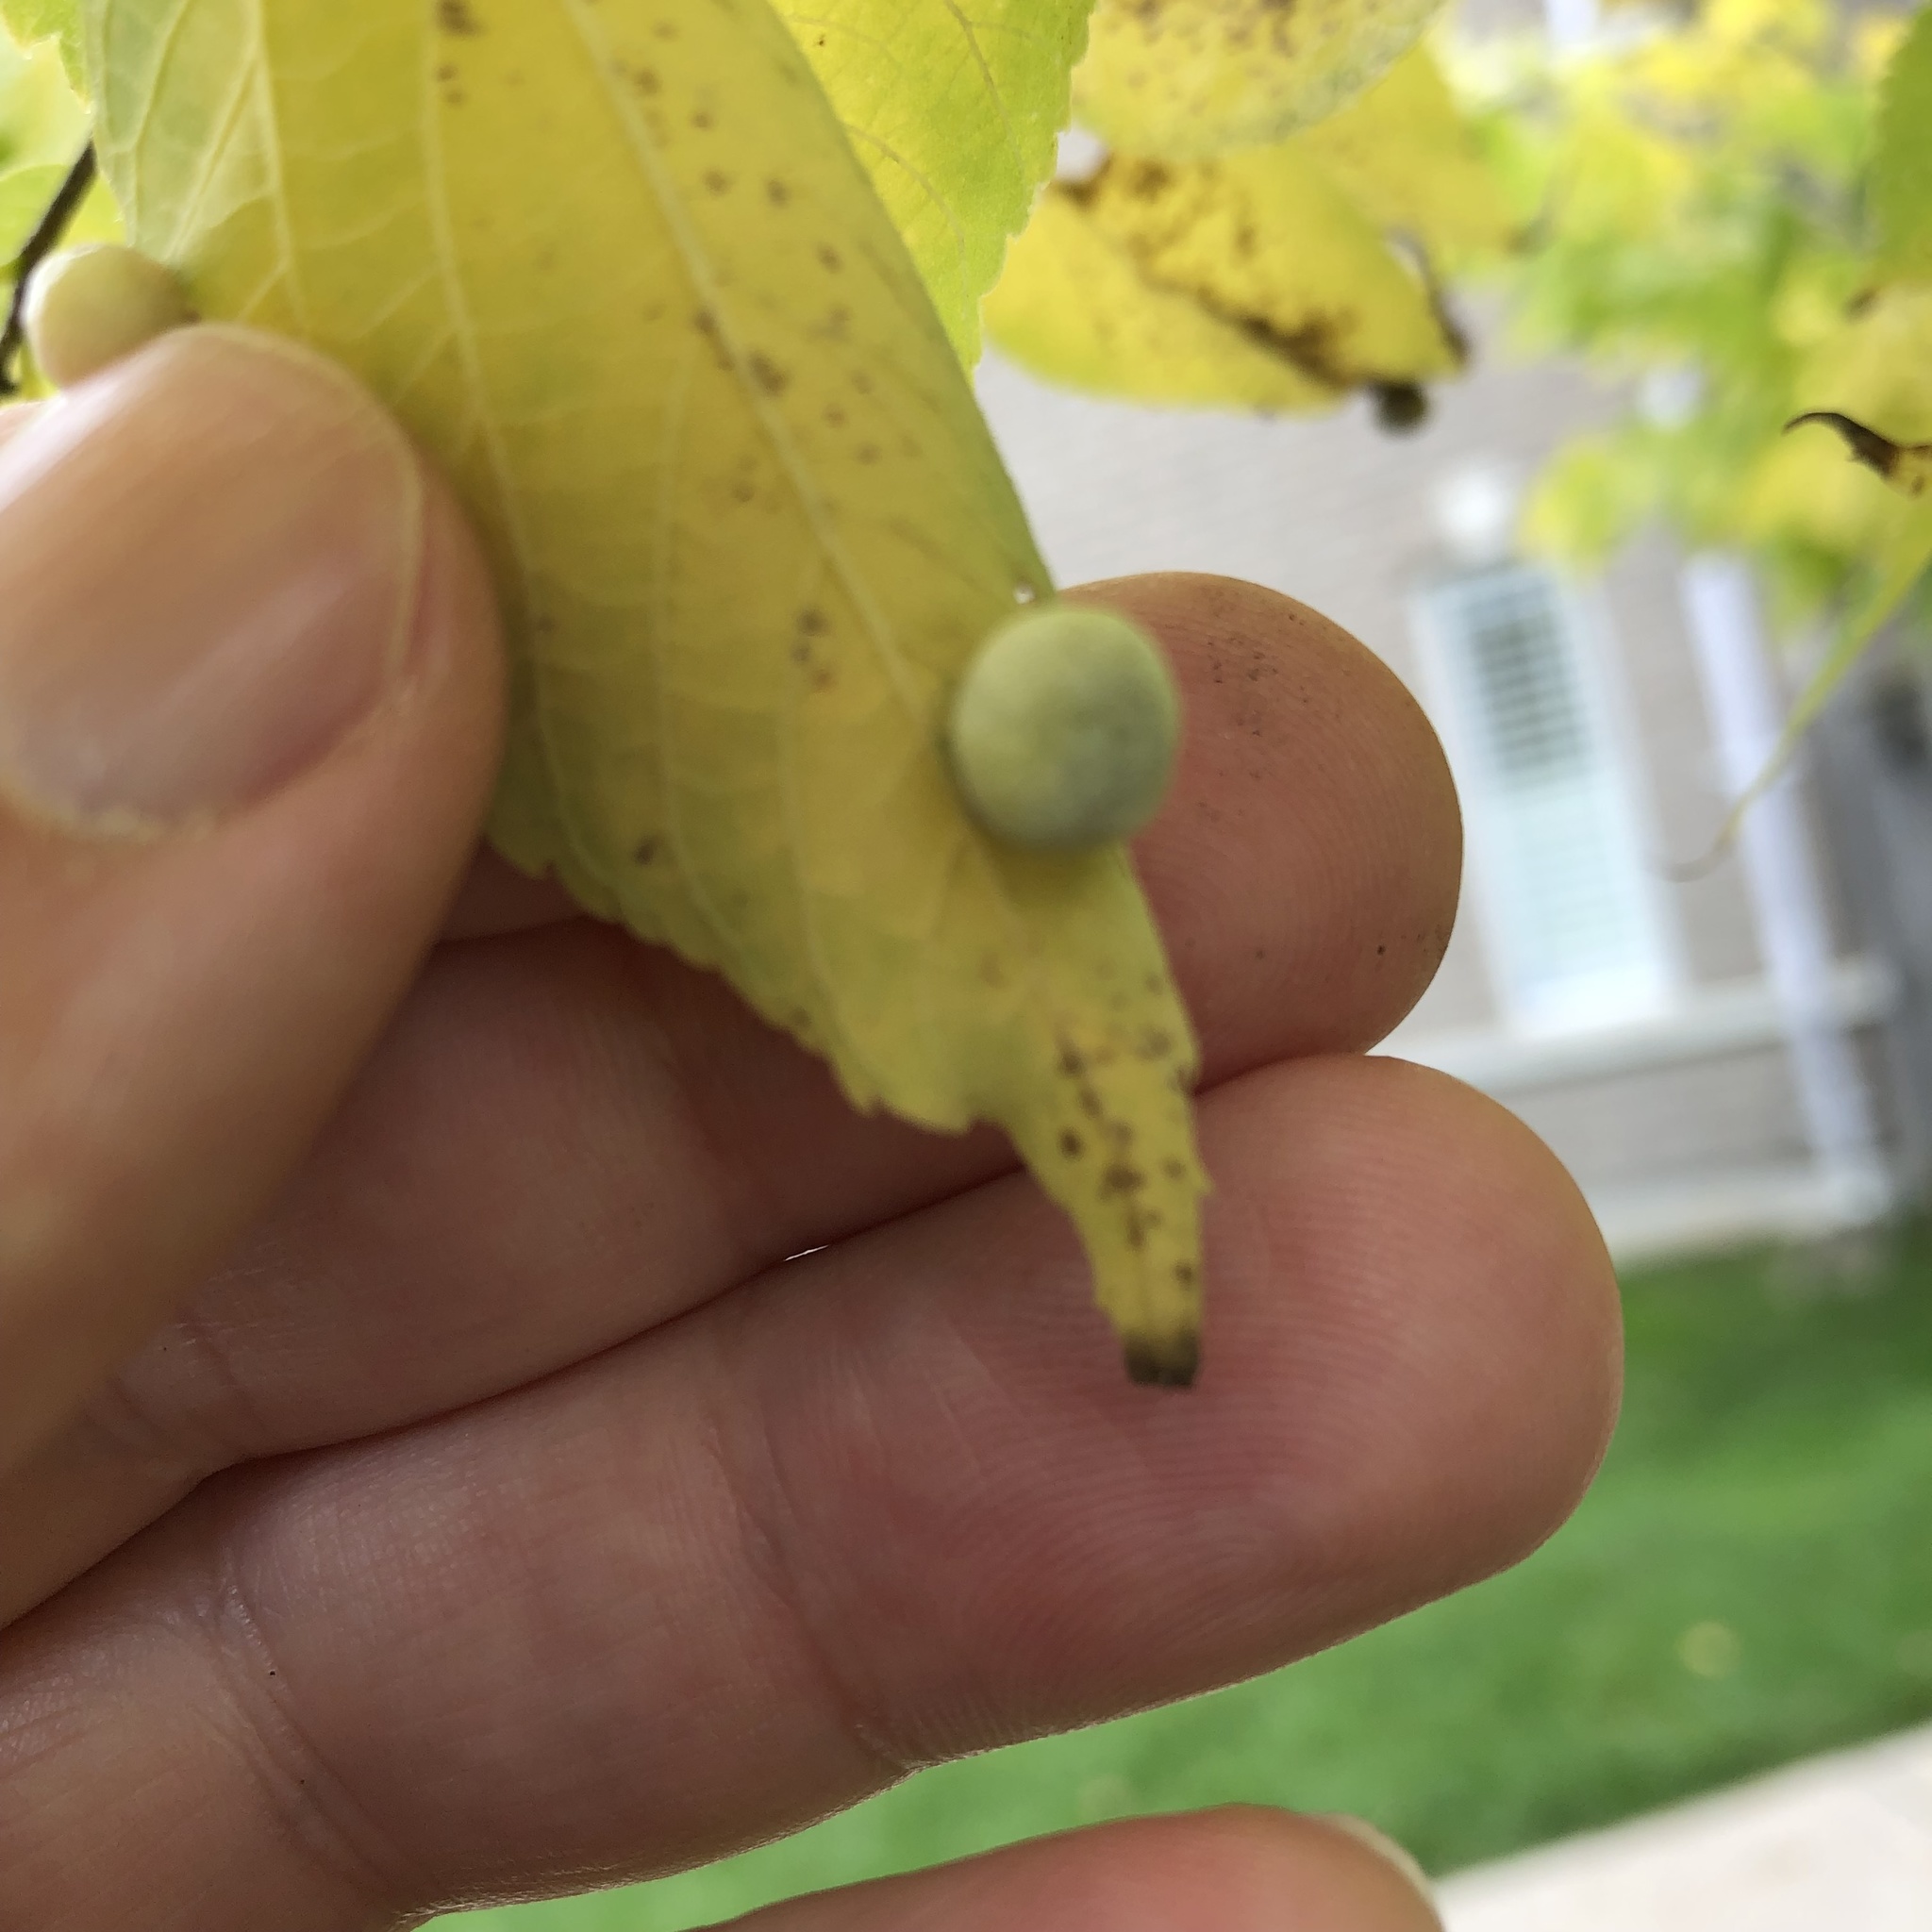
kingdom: Animalia
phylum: Arthropoda
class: Insecta
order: Hemiptera
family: Aphalaridae
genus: Pachypsylla
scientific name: Pachypsylla celtidismamma
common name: Hackberry nipplegall psyllid
